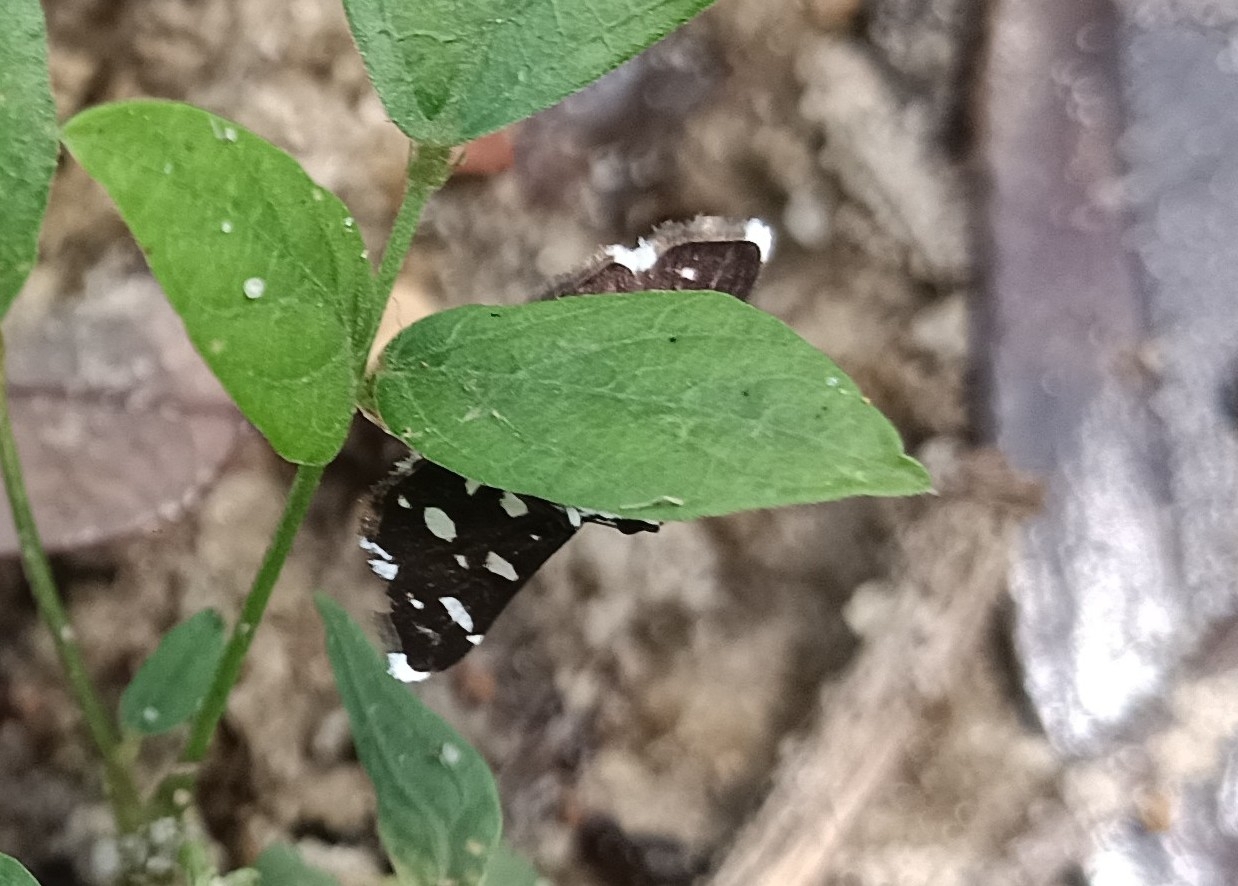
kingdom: Animalia
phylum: Arthropoda
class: Insecta
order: Lepidoptera
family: Crambidae
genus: Bocchoris
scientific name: Bocchoris inspersalis
